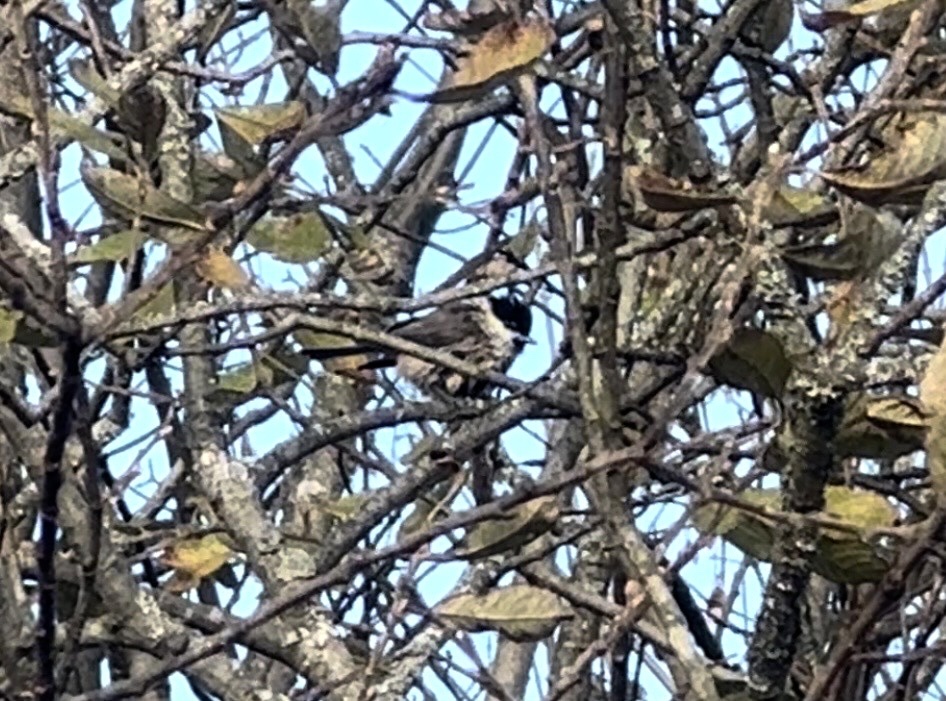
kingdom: Animalia
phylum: Chordata
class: Aves
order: Passeriformes
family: Paridae
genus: Poecile
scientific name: Poecile palustris
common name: Marsh tit
